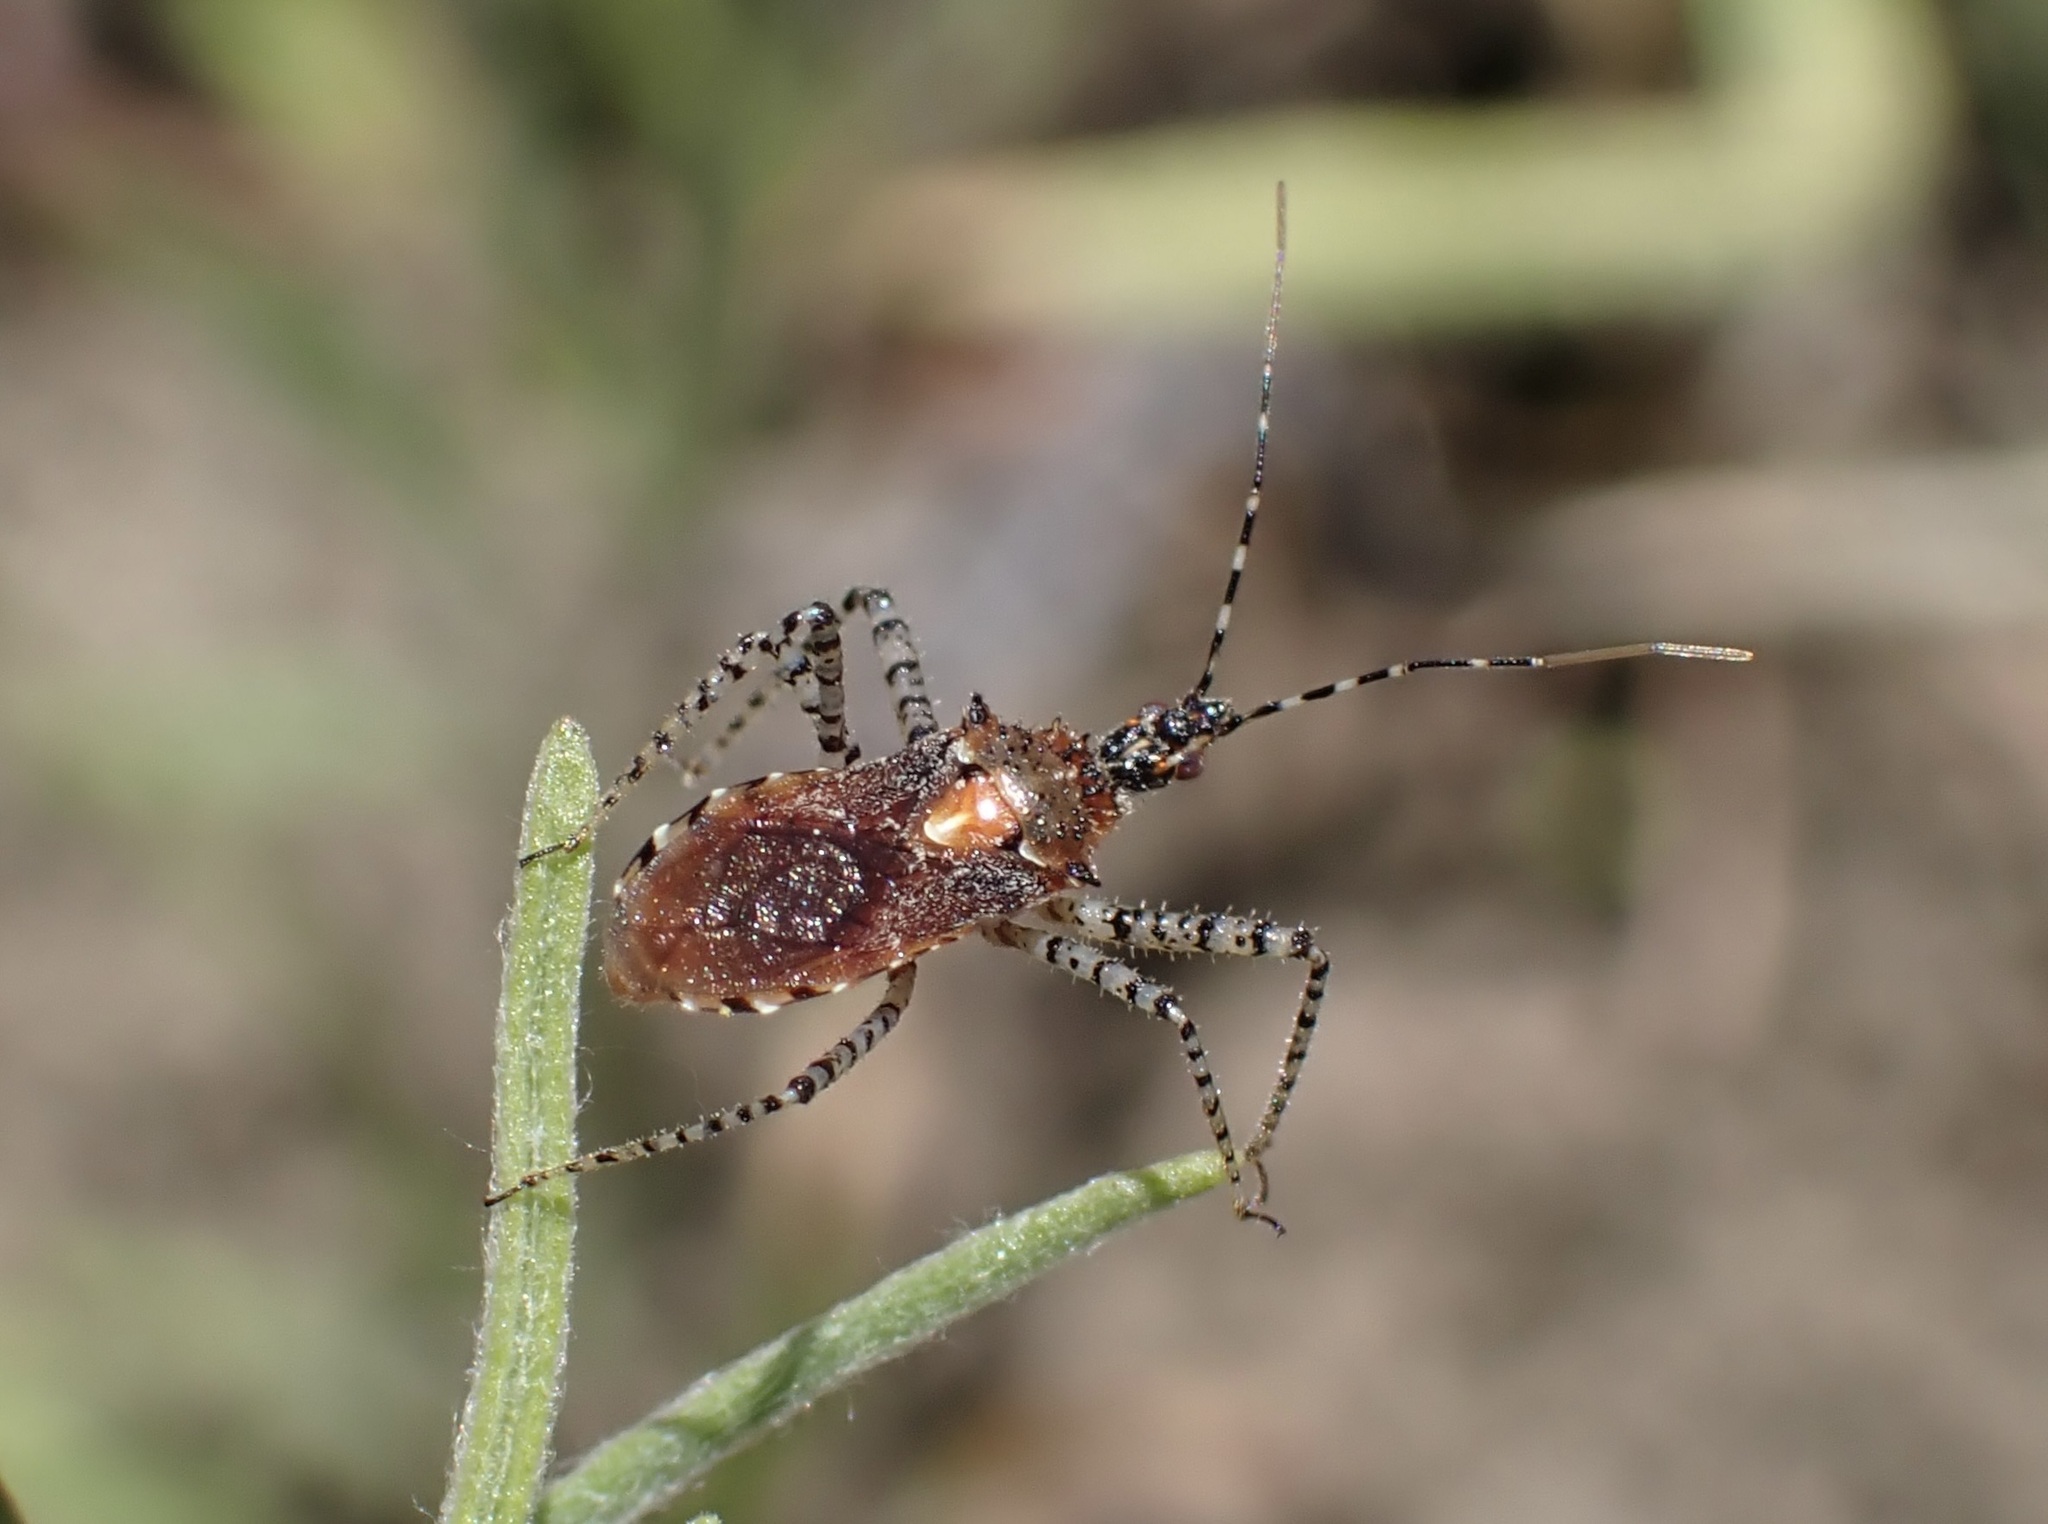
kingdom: Animalia
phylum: Arthropoda
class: Insecta
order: Hemiptera
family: Reduviidae
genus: Pselliopus
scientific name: Pselliopus spinicollis
